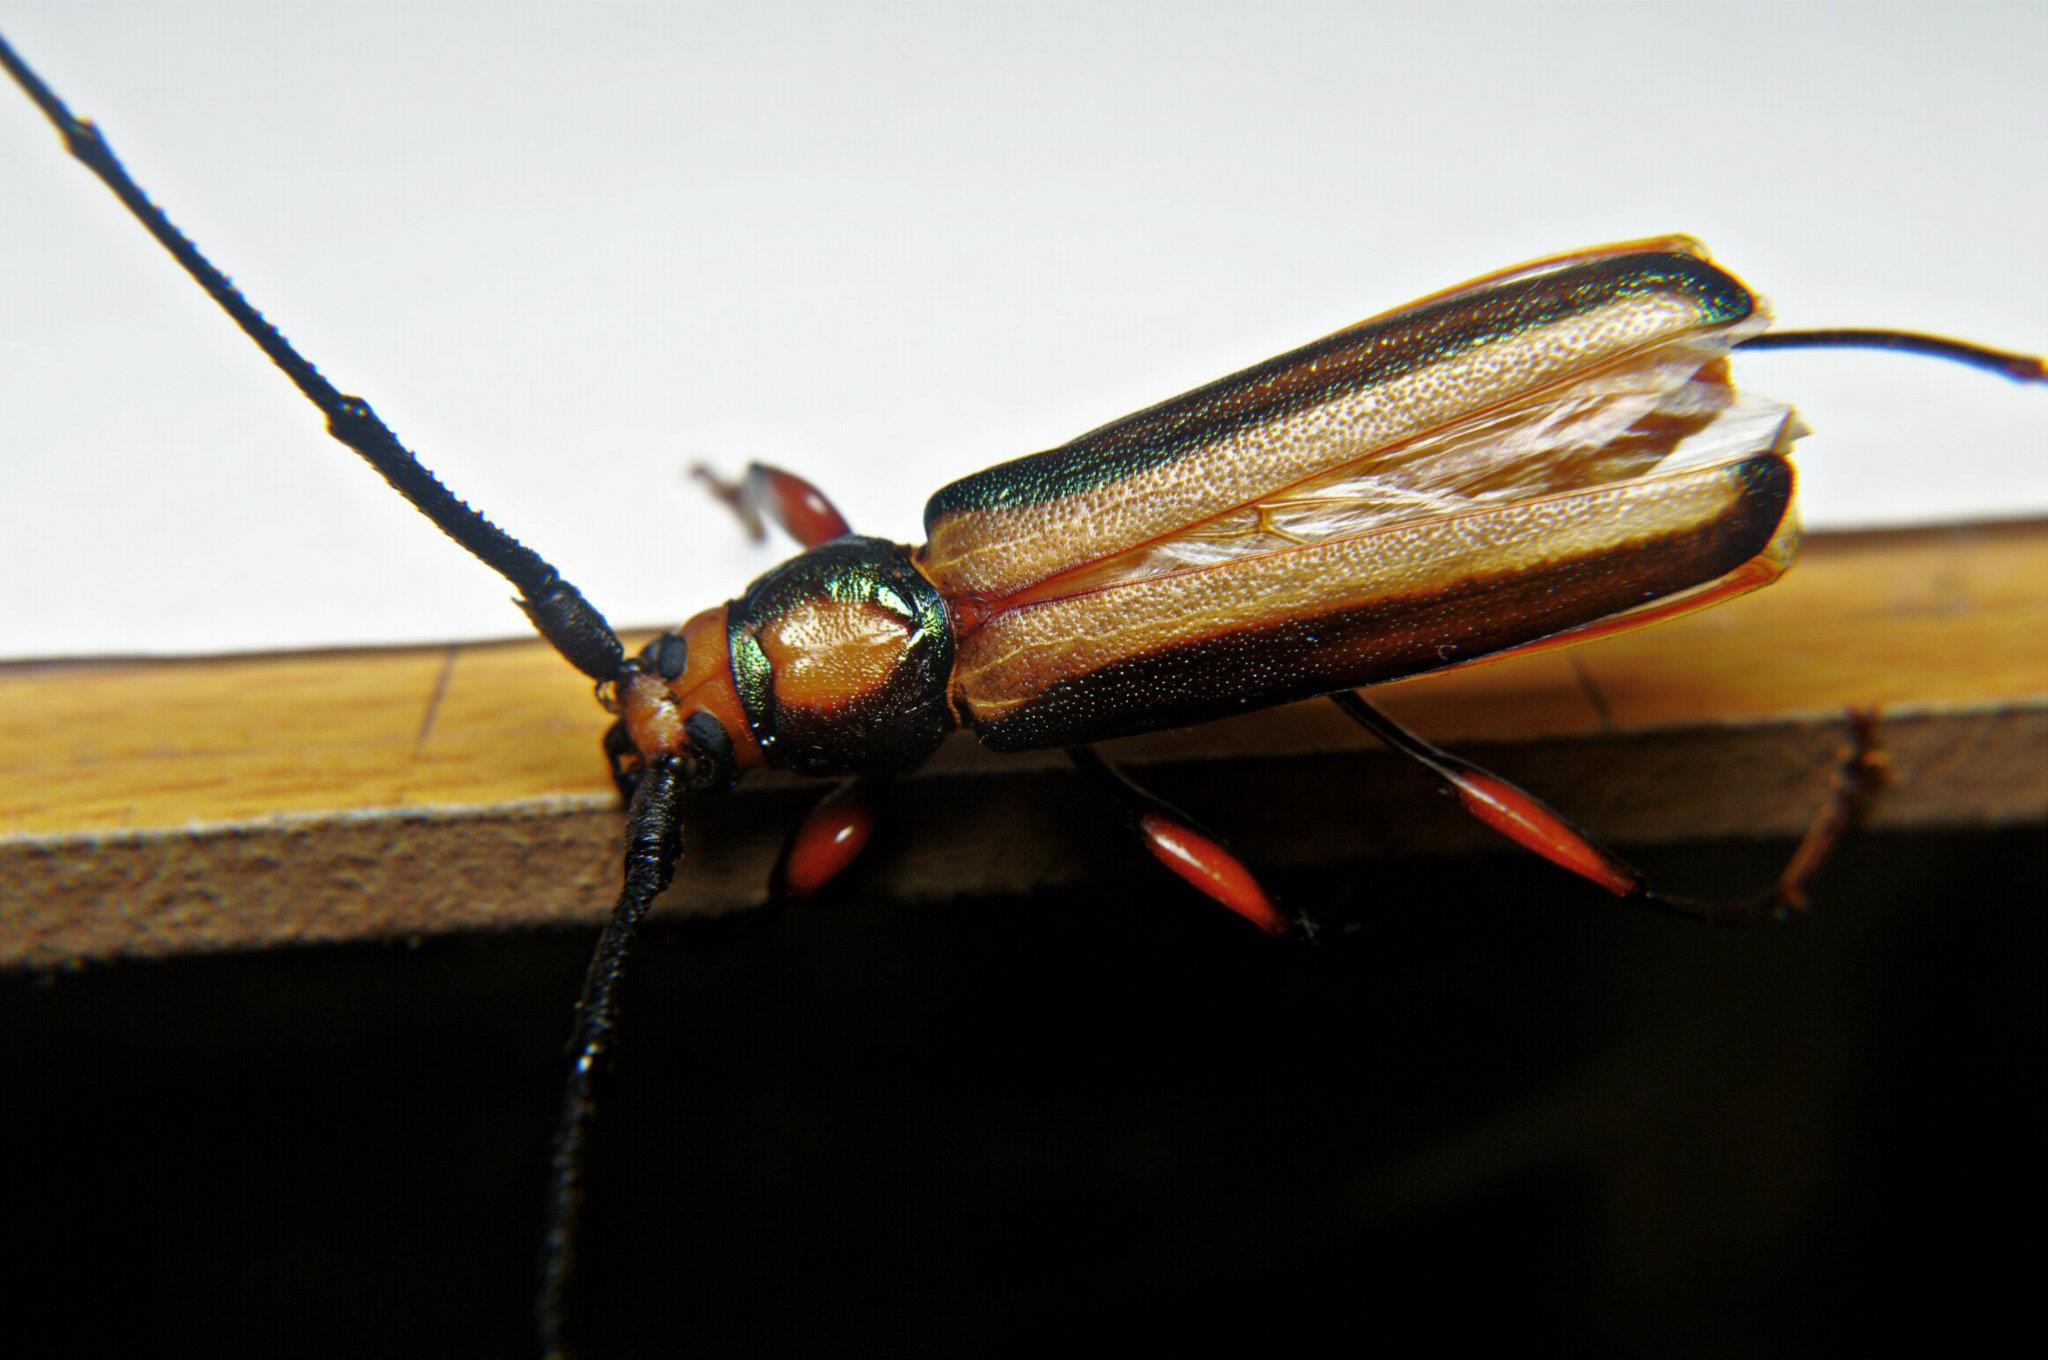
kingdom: Animalia
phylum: Arthropoda
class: Insecta
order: Coleoptera
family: Cerambycidae
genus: Xystrocera
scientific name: Xystrocera globosa
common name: Peach-tree longhorn
